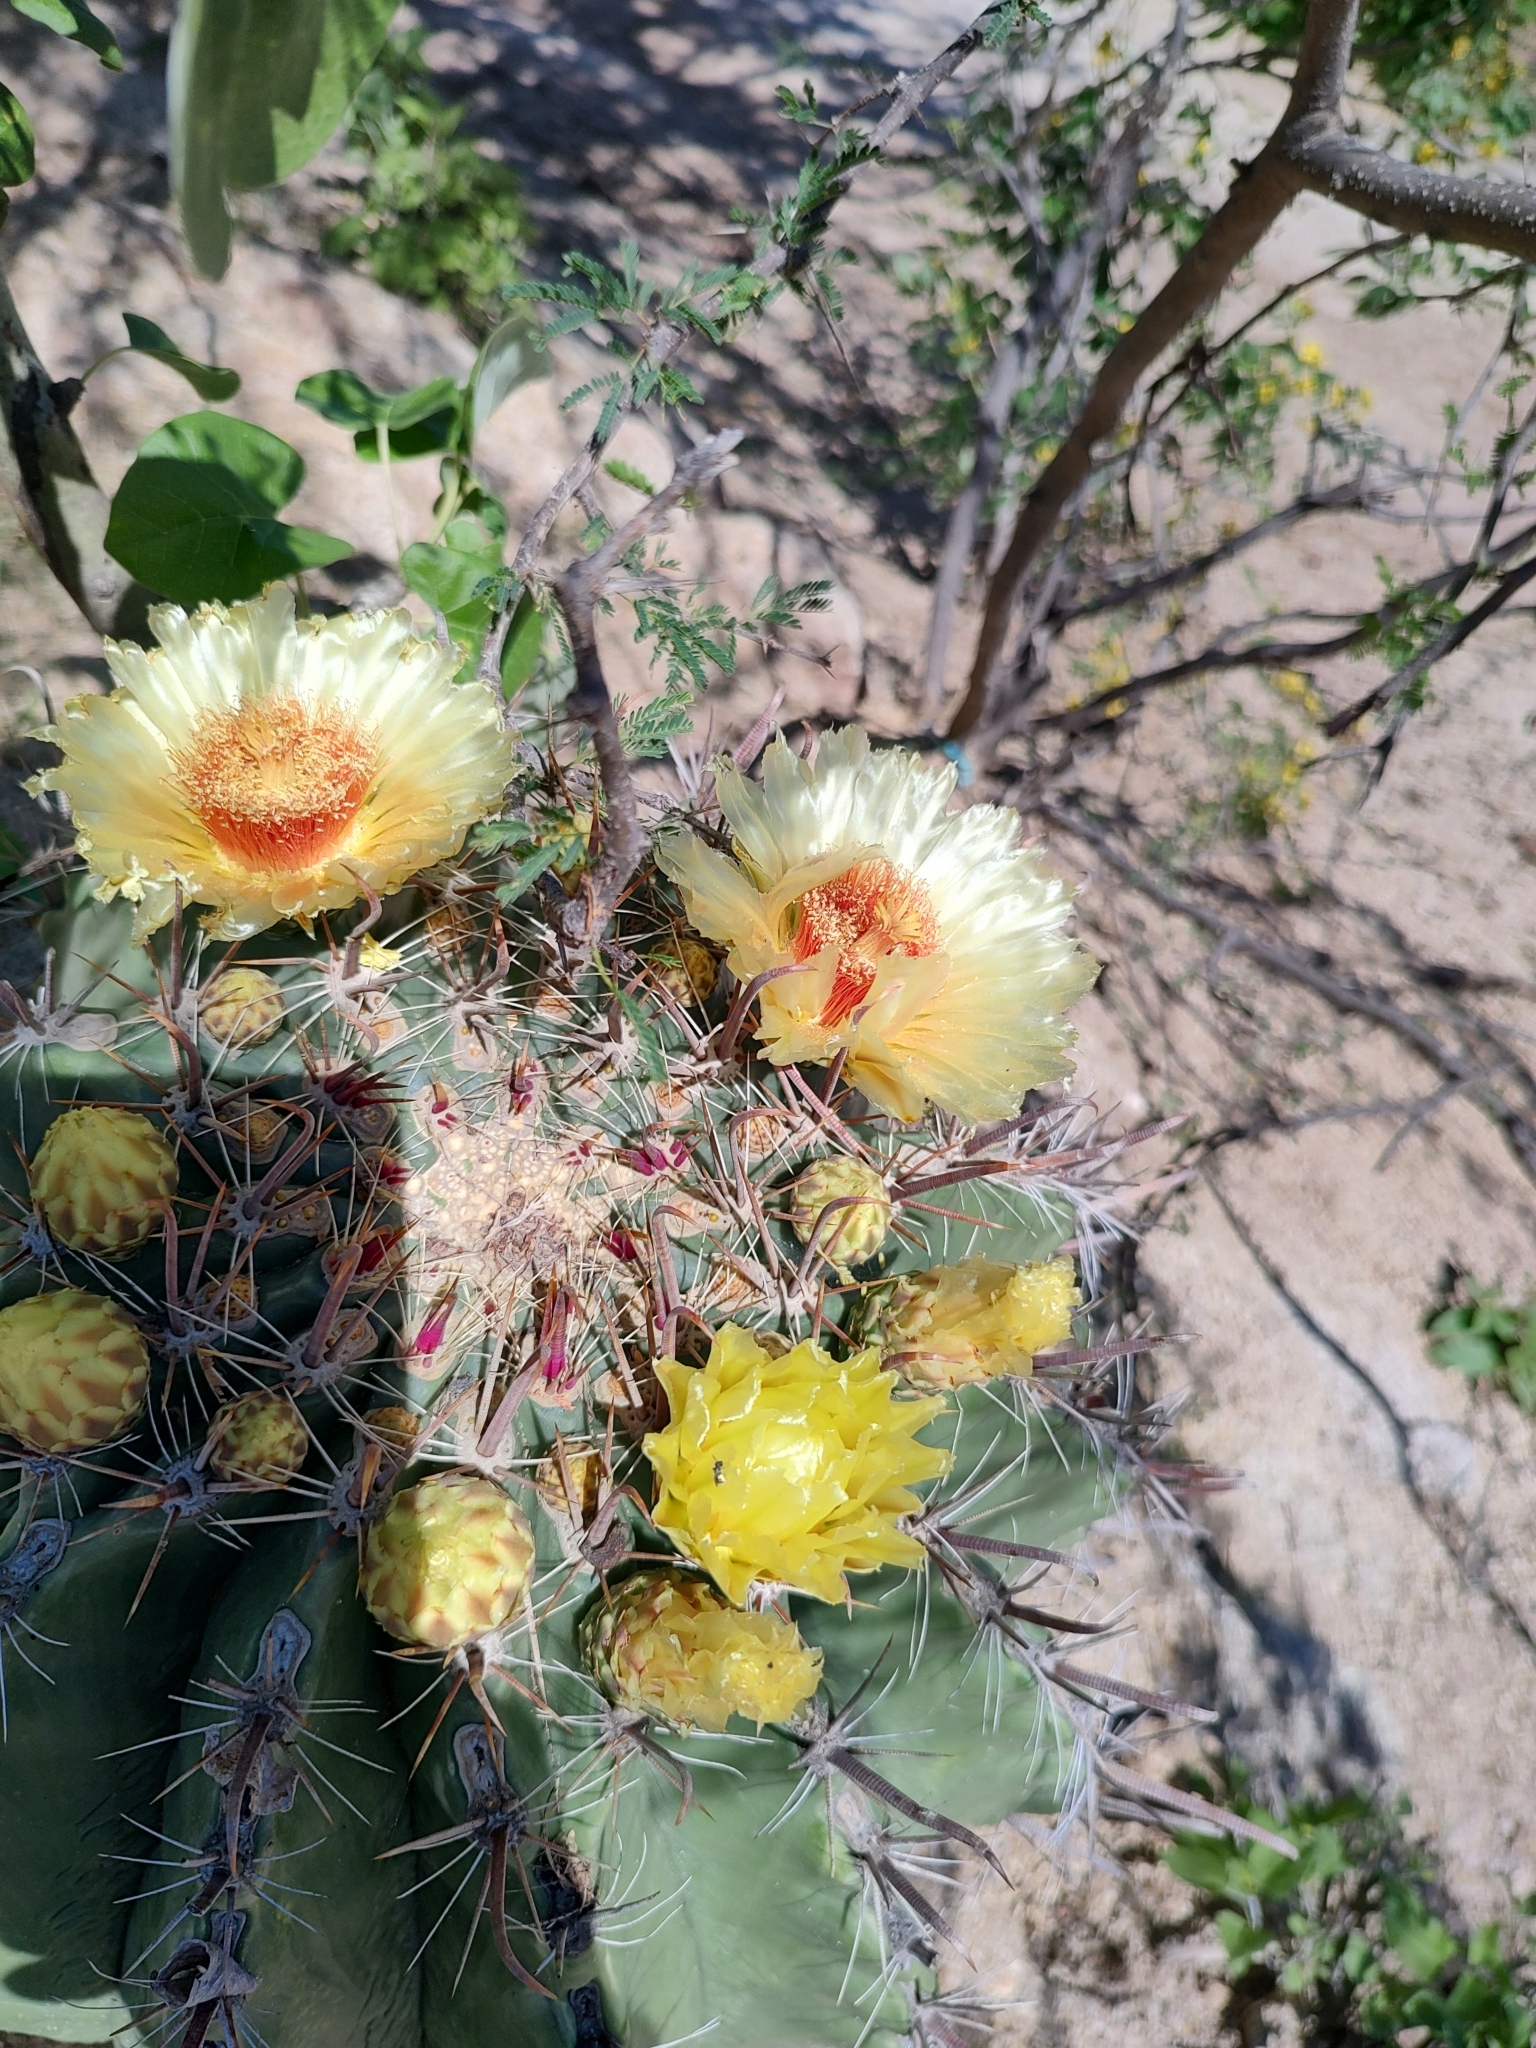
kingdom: Plantae
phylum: Tracheophyta
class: Magnoliopsida
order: Caryophyllales
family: Cactaceae
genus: Ferocactus
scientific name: Ferocactus townsendianus
